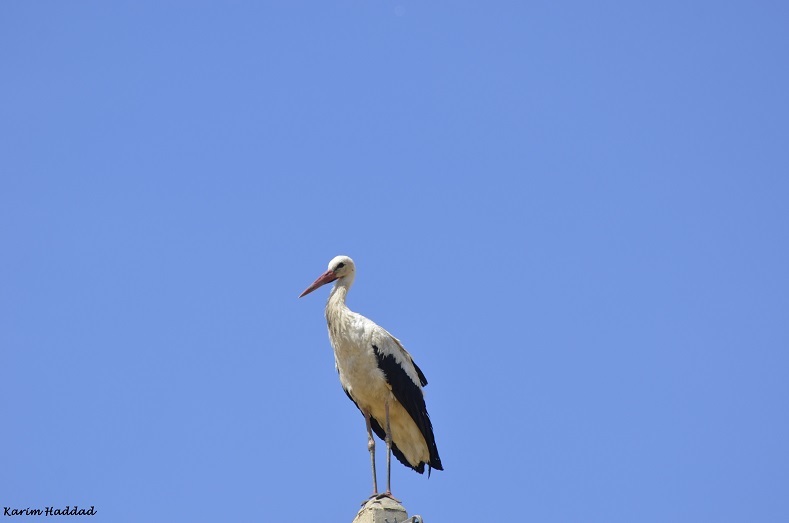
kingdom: Animalia
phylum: Chordata
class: Aves
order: Ciconiiformes
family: Ciconiidae
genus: Ciconia
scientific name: Ciconia ciconia
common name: White stork
